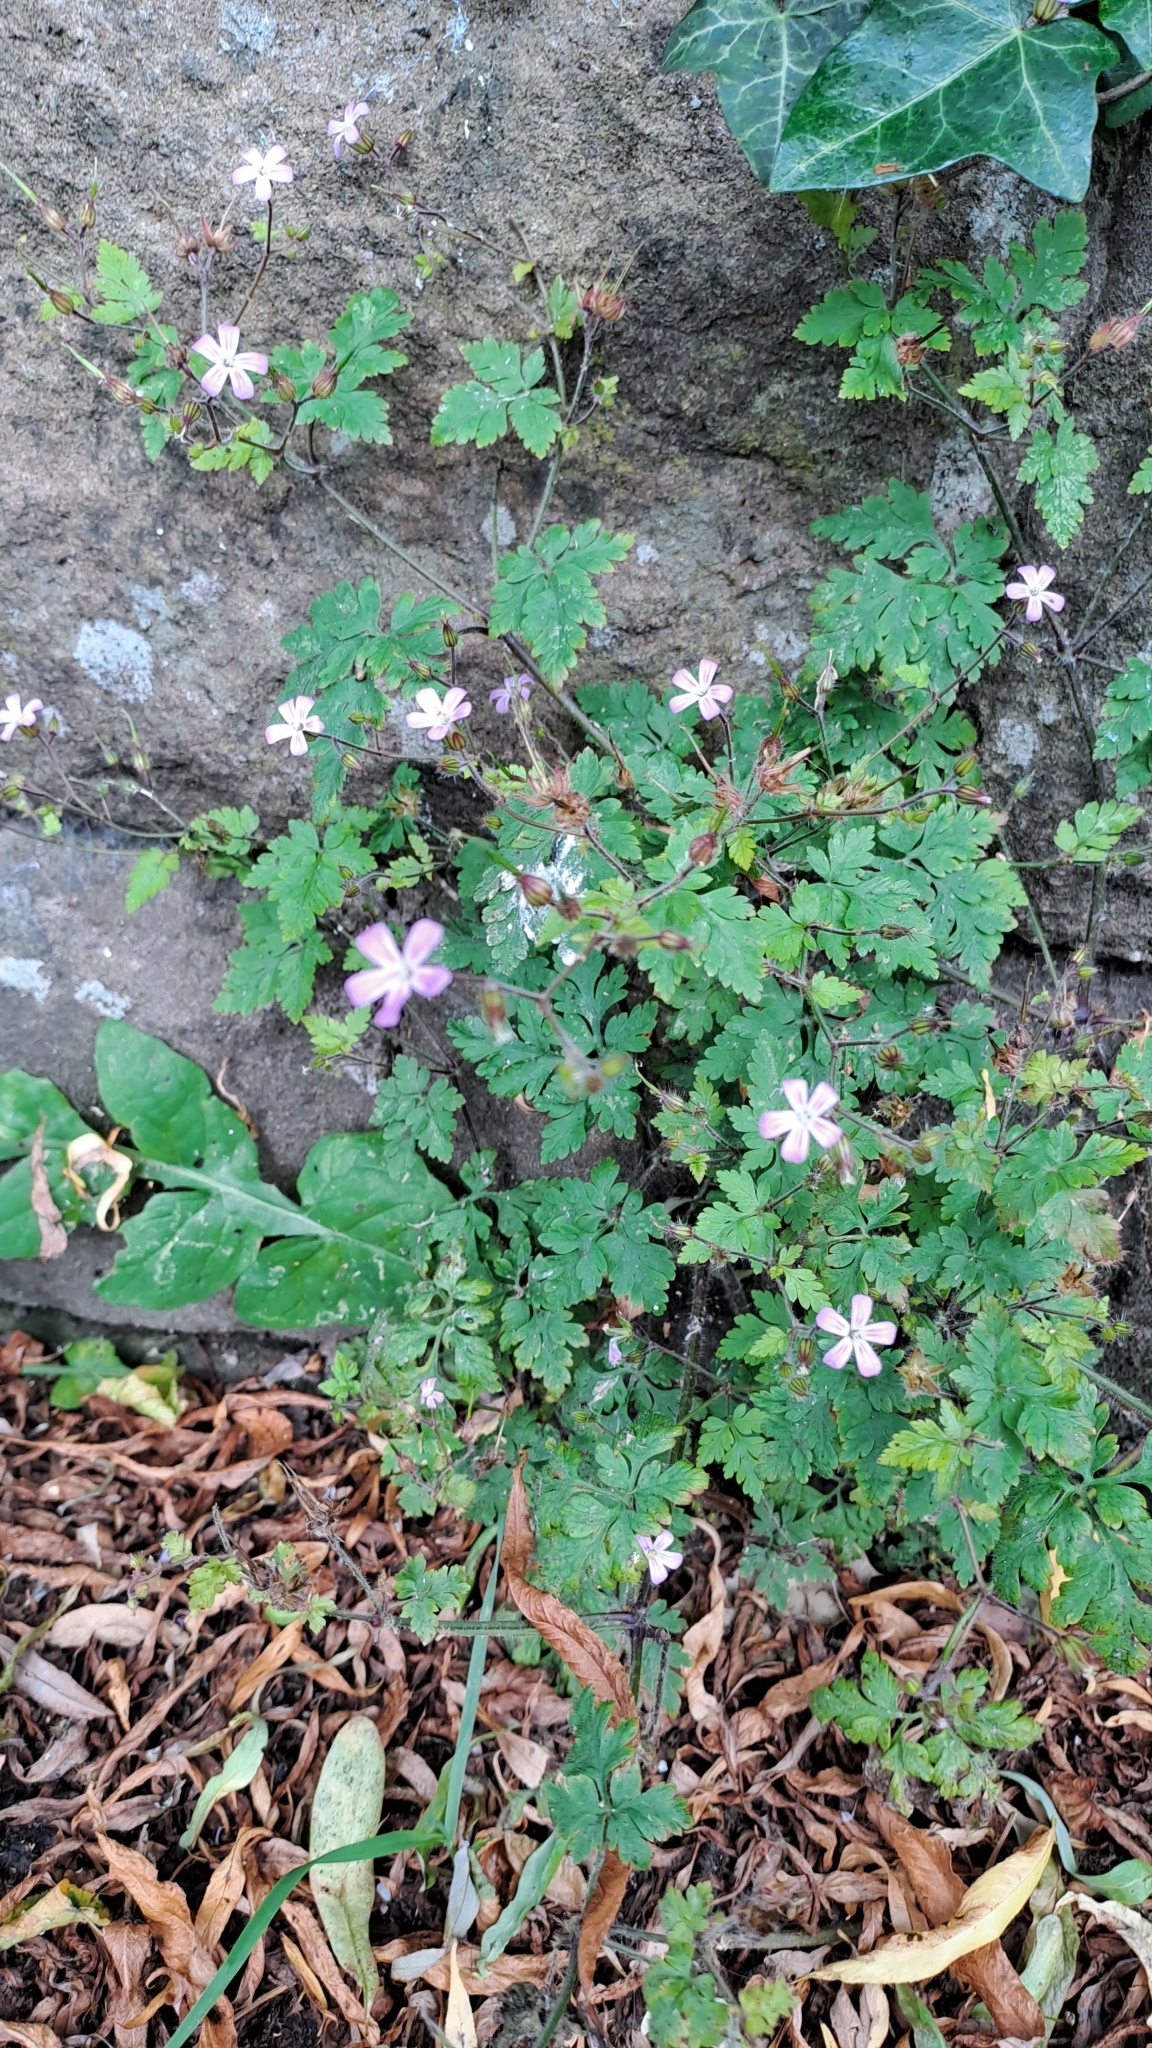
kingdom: Plantae
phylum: Tracheophyta
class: Magnoliopsida
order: Geraniales
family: Geraniaceae
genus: Geranium
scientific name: Geranium robertianum
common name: Herb-robert
